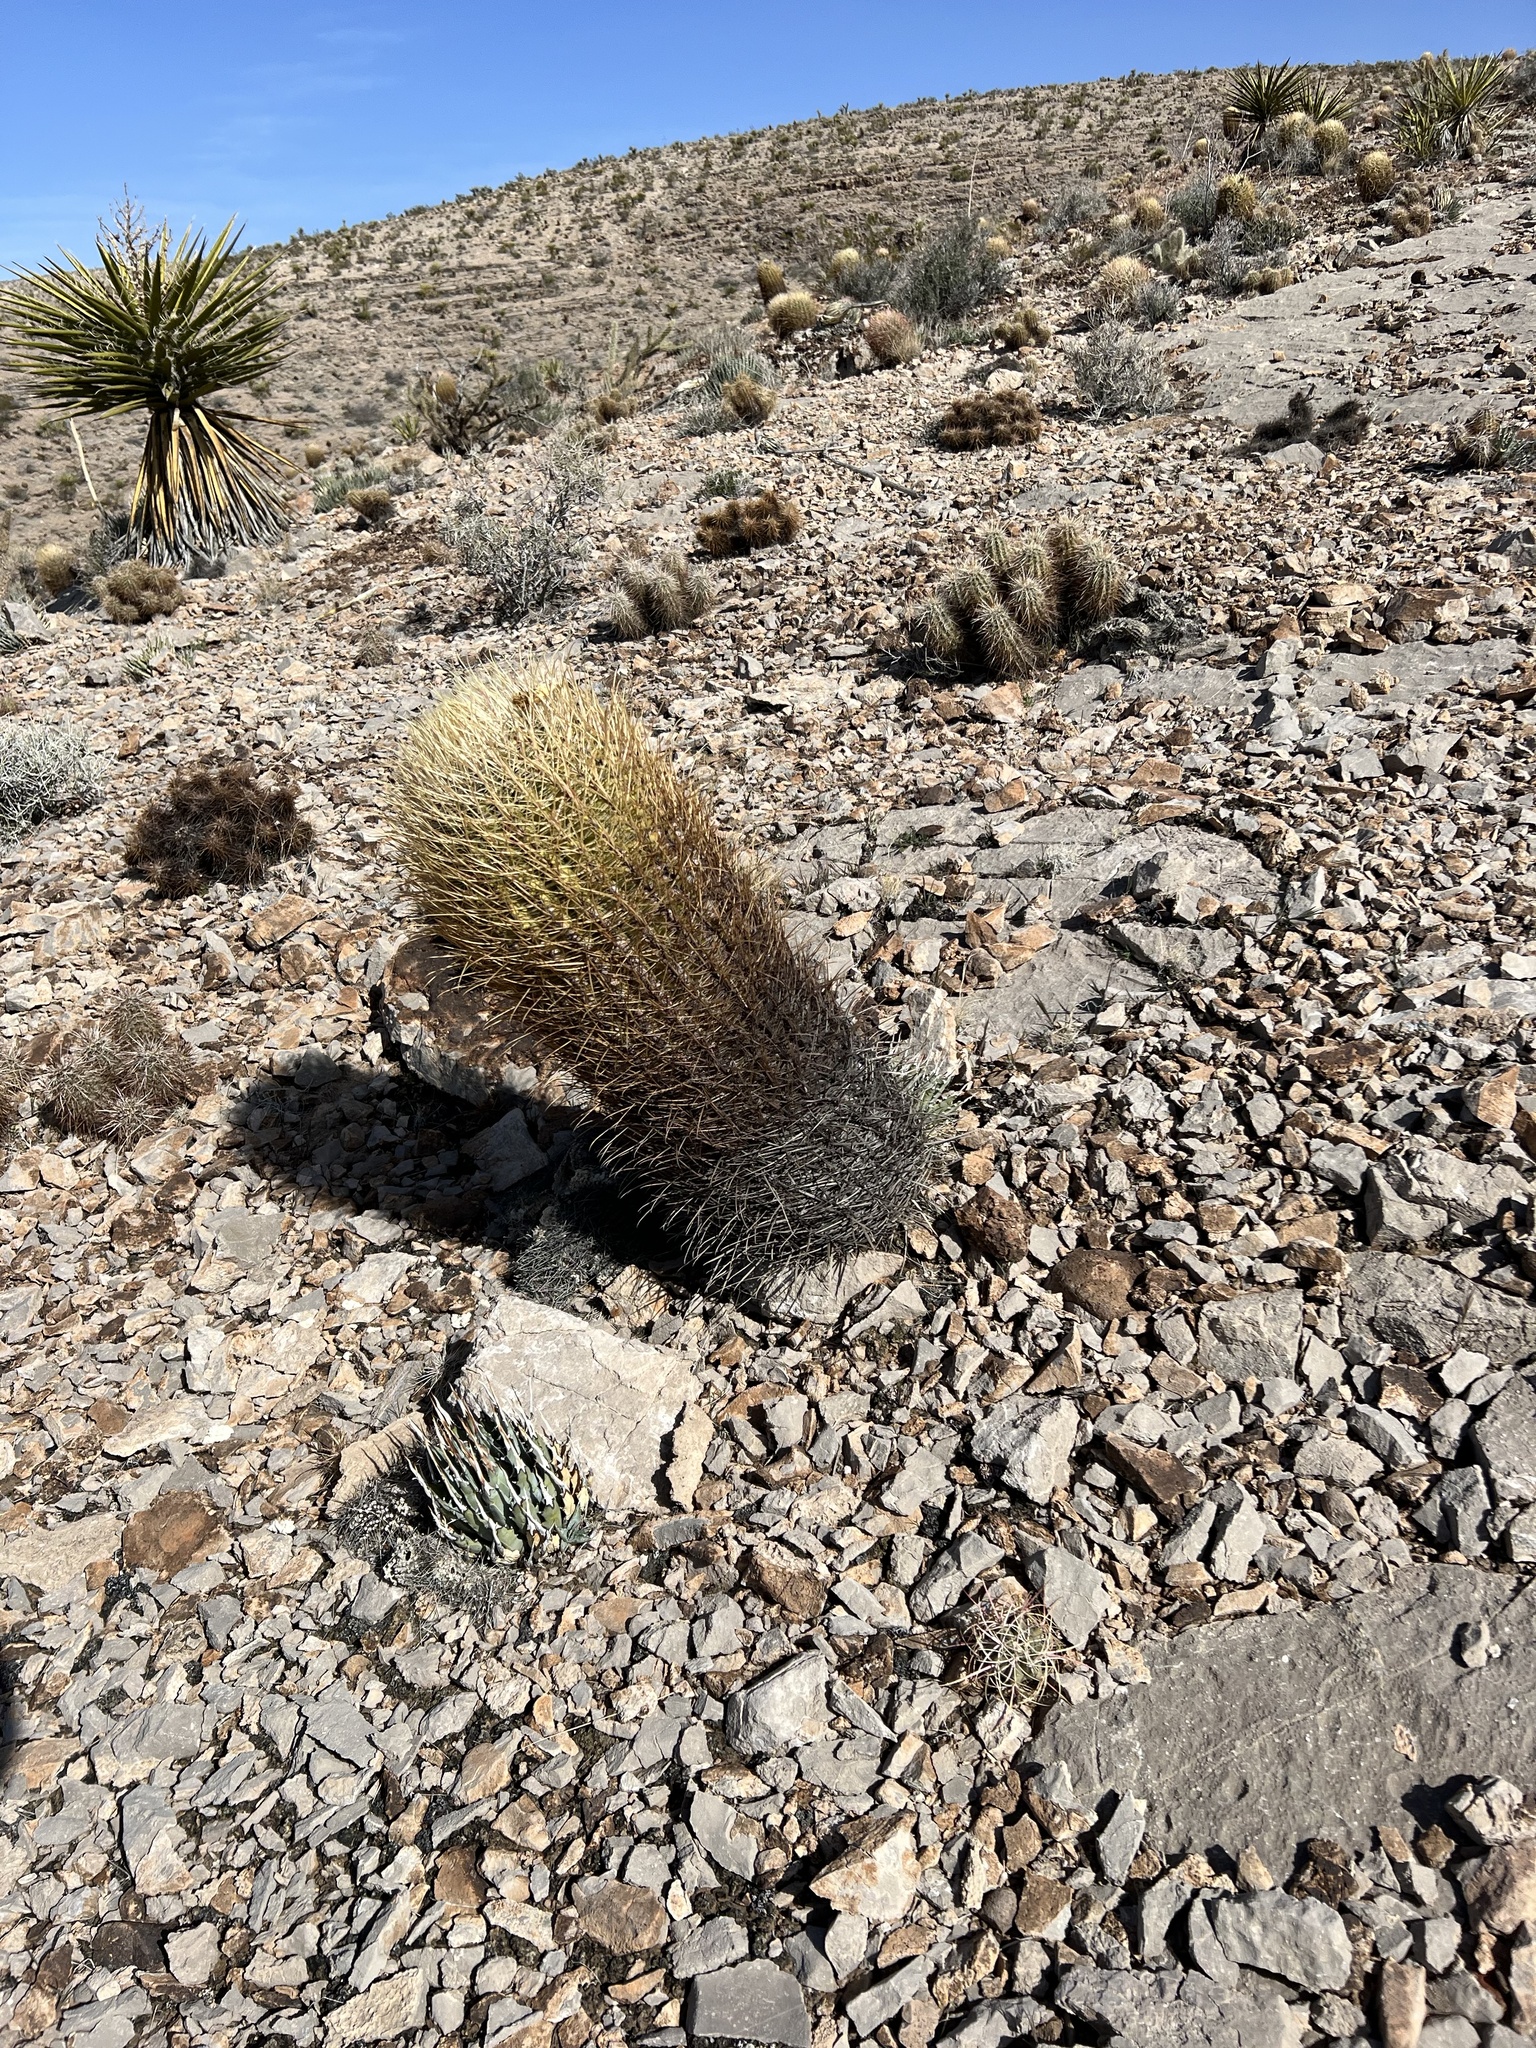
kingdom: Plantae
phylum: Tracheophyta
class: Magnoliopsida
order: Caryophyllales
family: Cactaceae
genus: Ferocactus
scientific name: Ferocactus cylindraceus
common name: California barrel cactus
